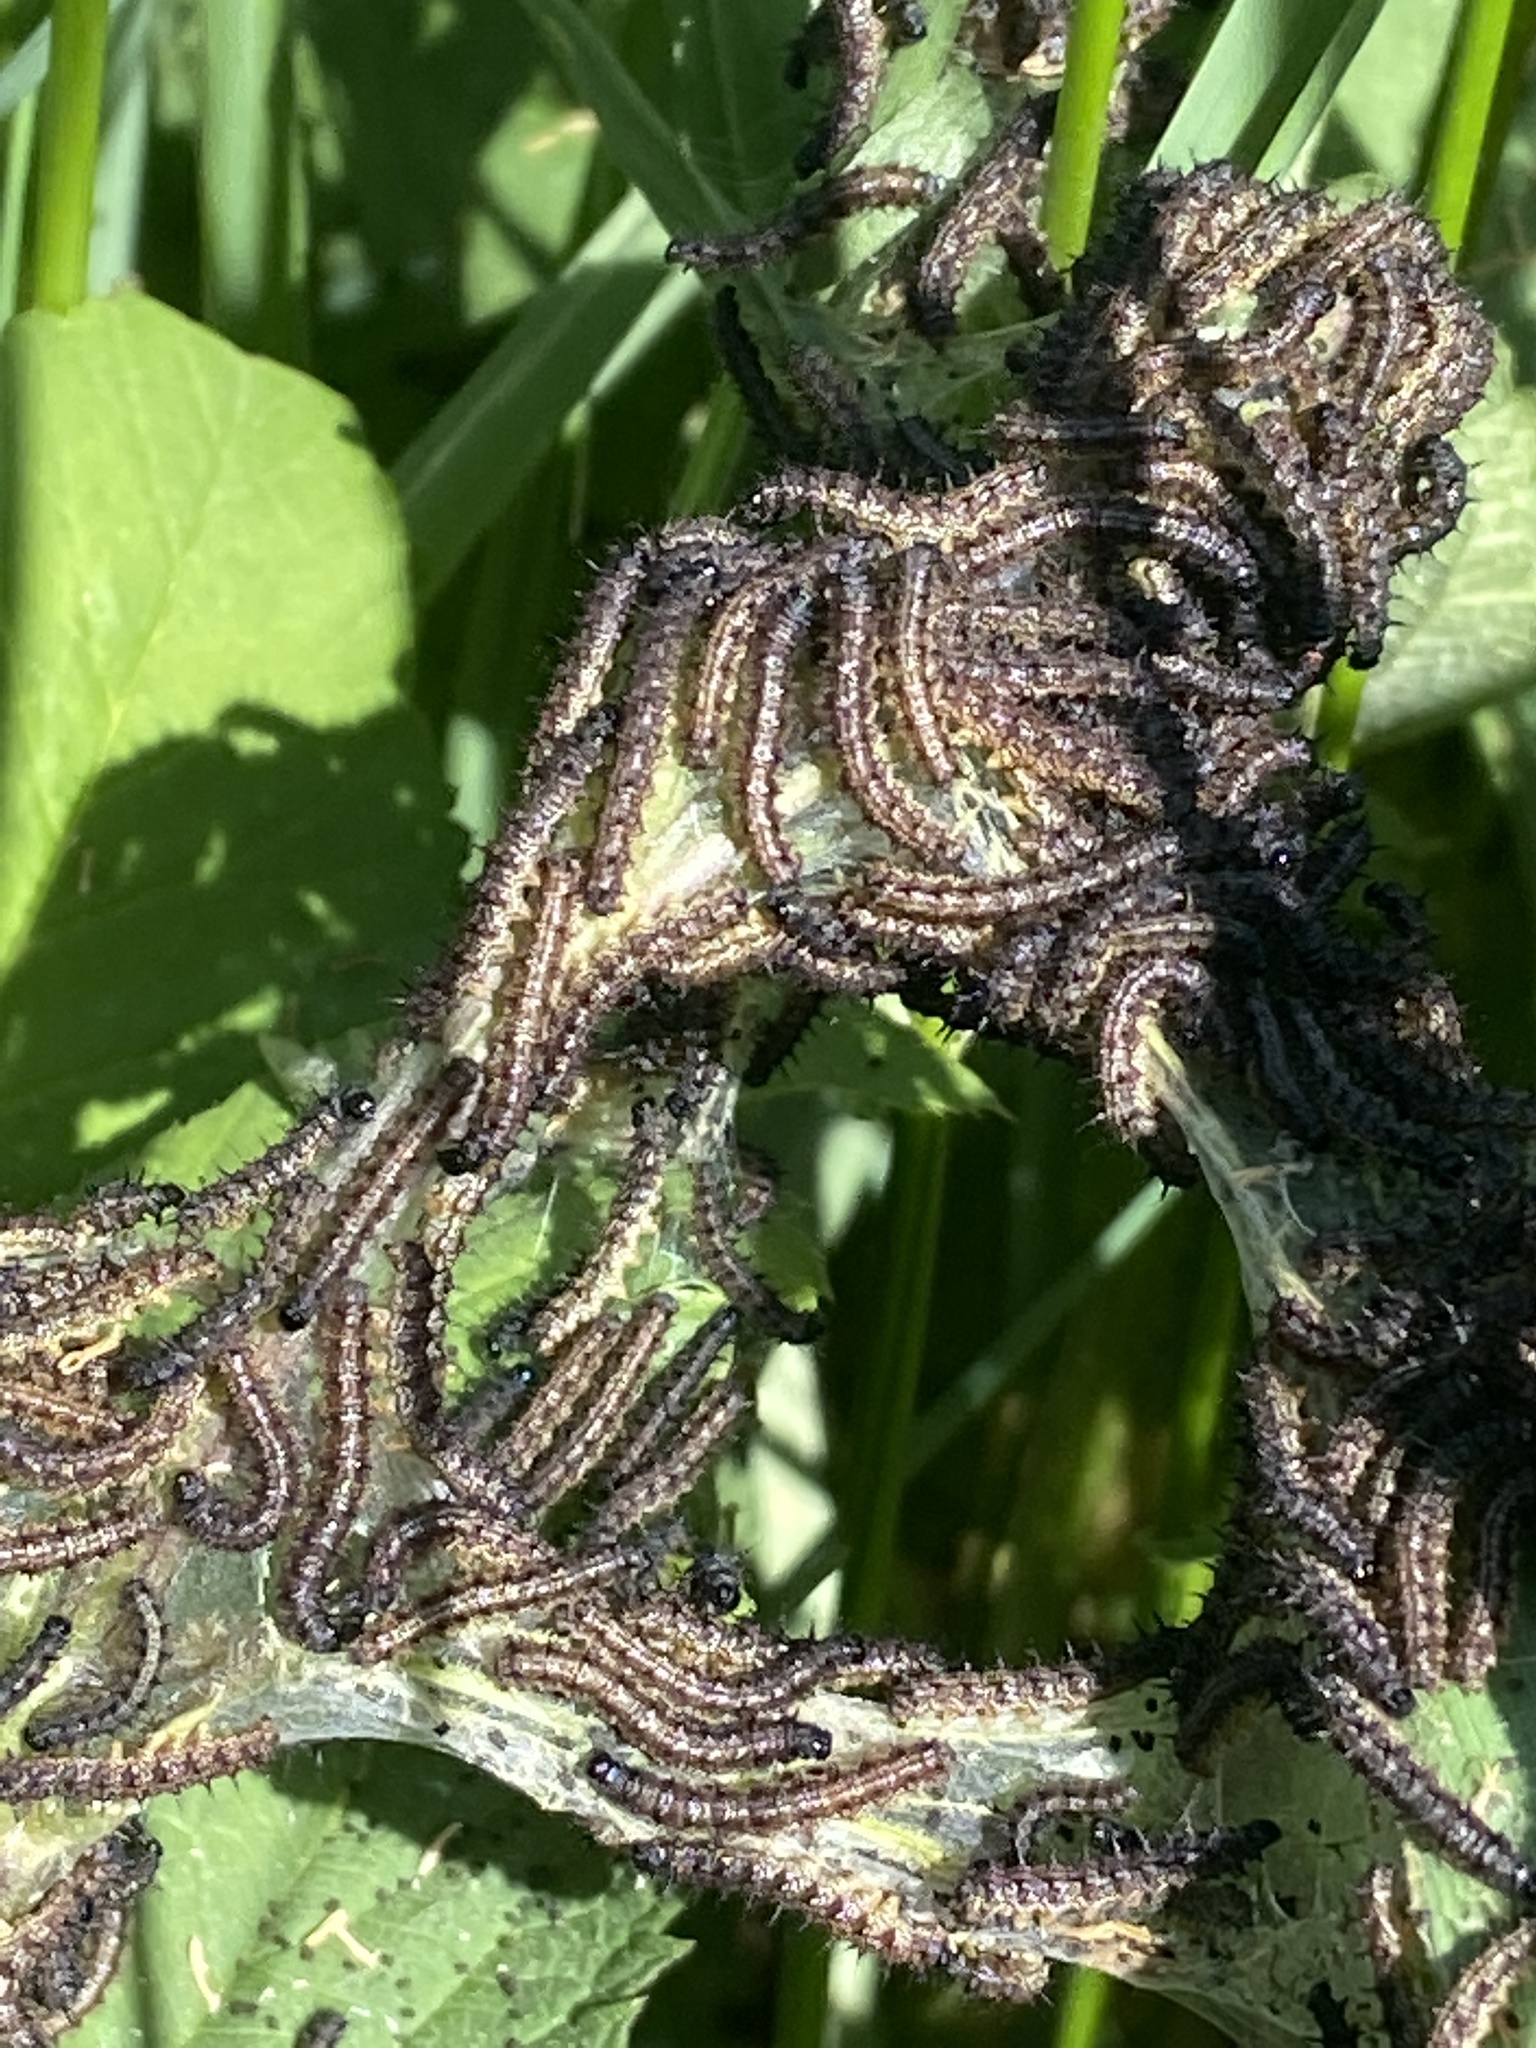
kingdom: Animalia
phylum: Arthropoda
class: Insecta
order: Lepidoptera
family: Nymphalidae
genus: Aglais
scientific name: Aglais io
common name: Peacock
